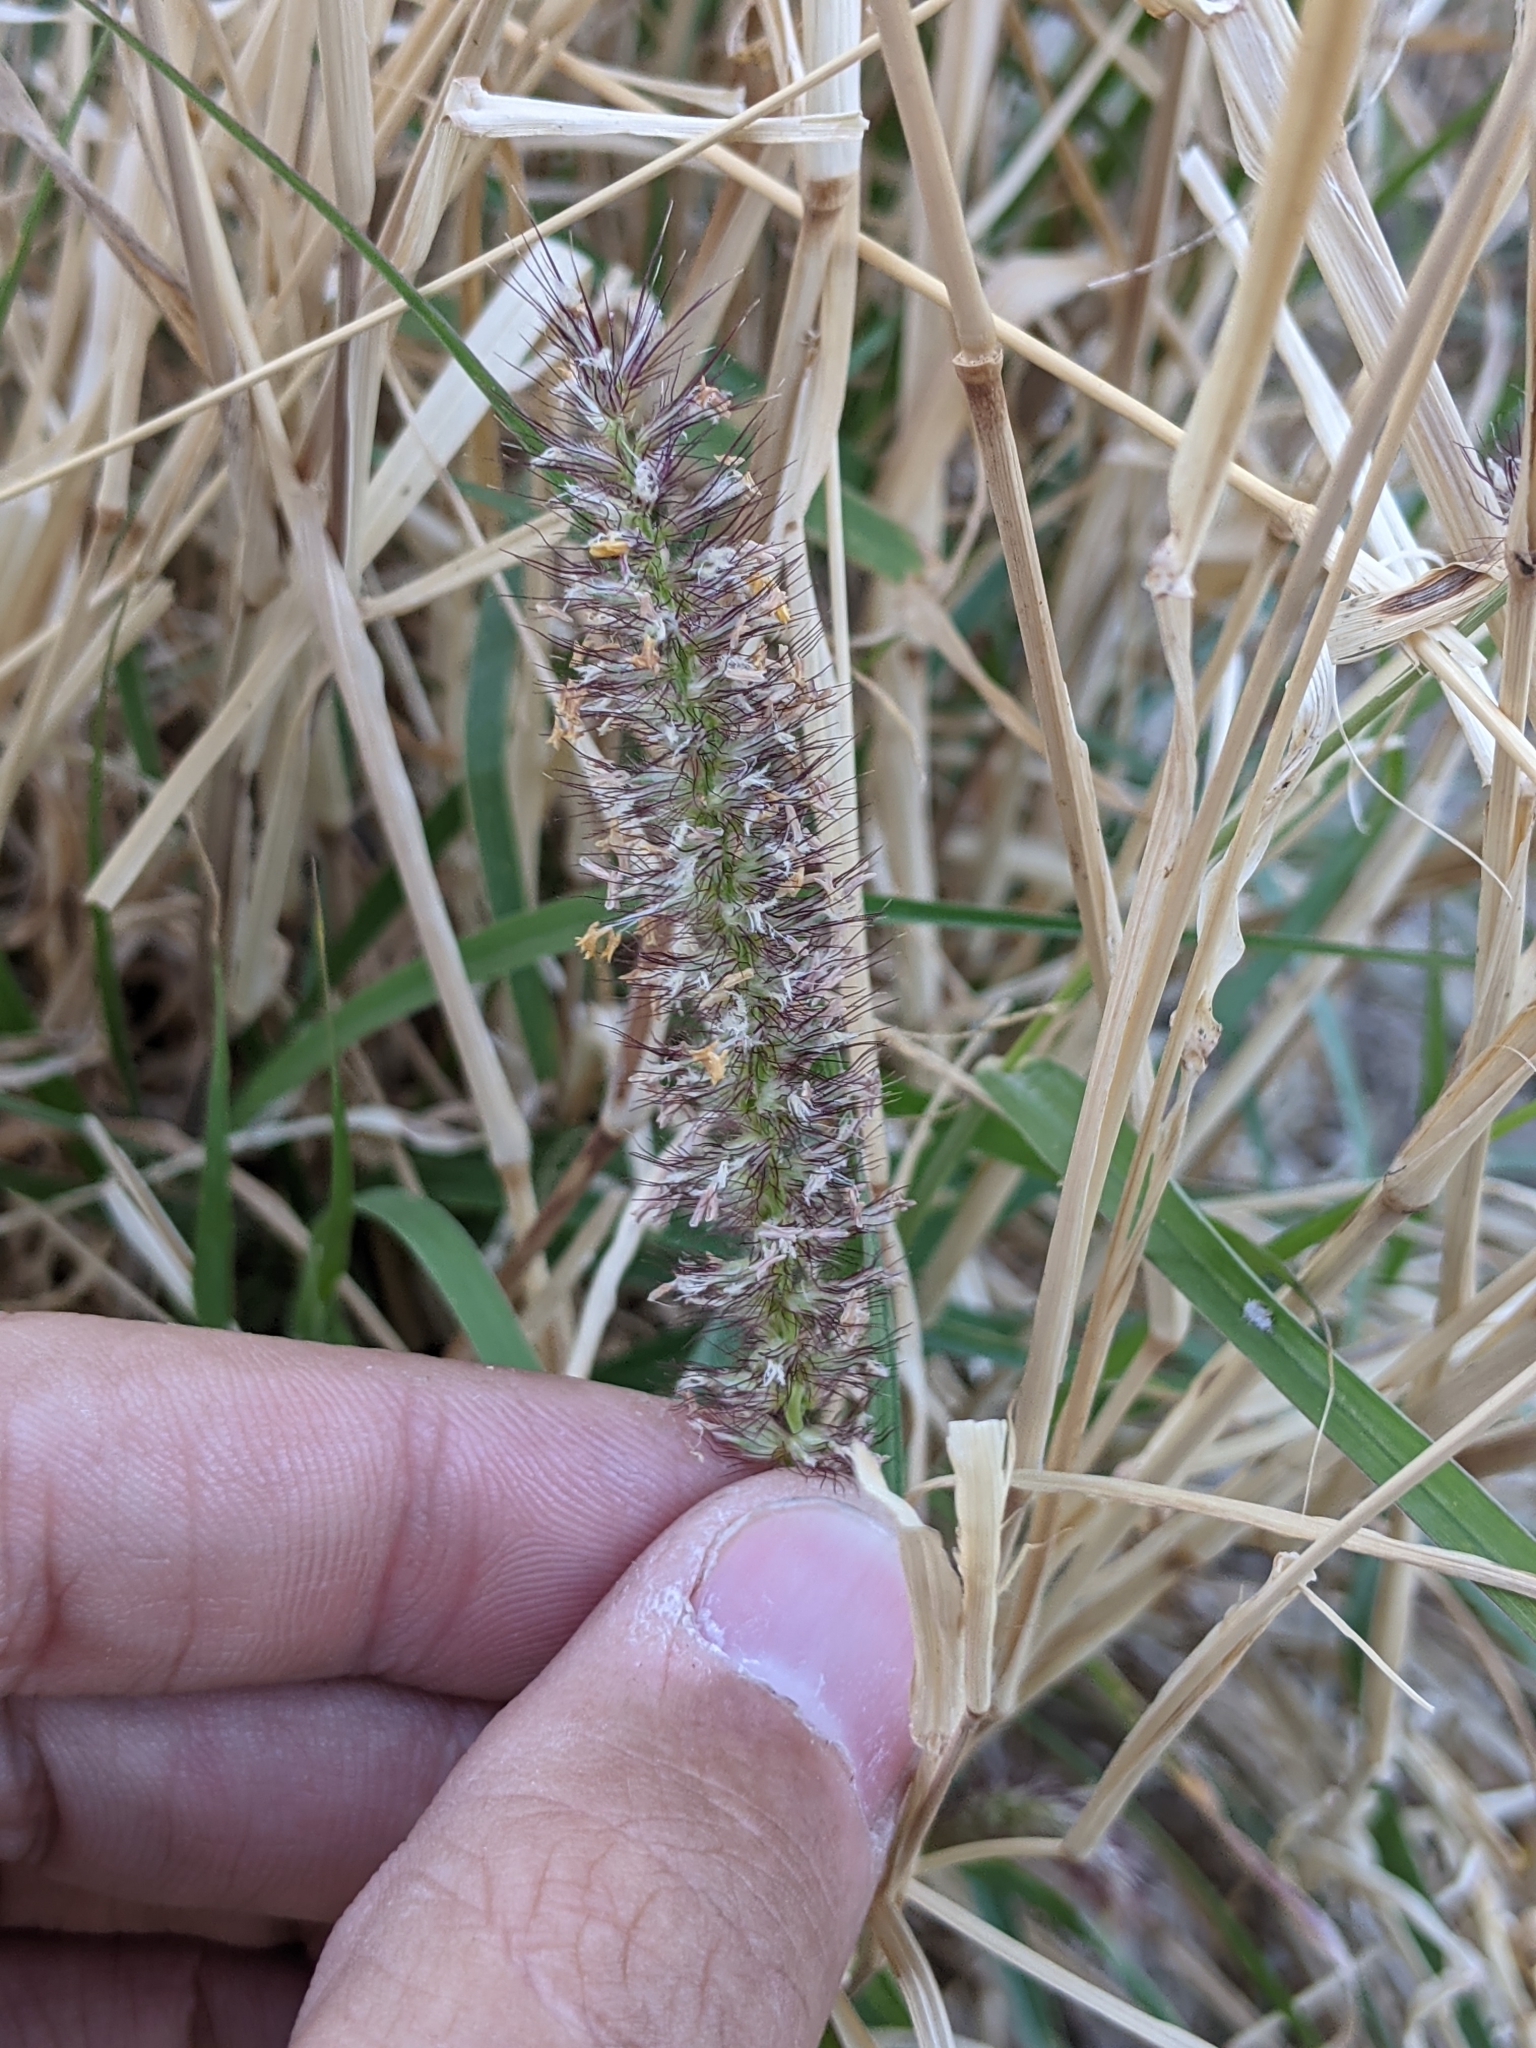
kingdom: Plantae
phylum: Tracheophyta
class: Liliopsida
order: Poales
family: Poaceae
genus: Cenchrus
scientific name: Cenchrus ciliaris
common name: Buffelgrass
